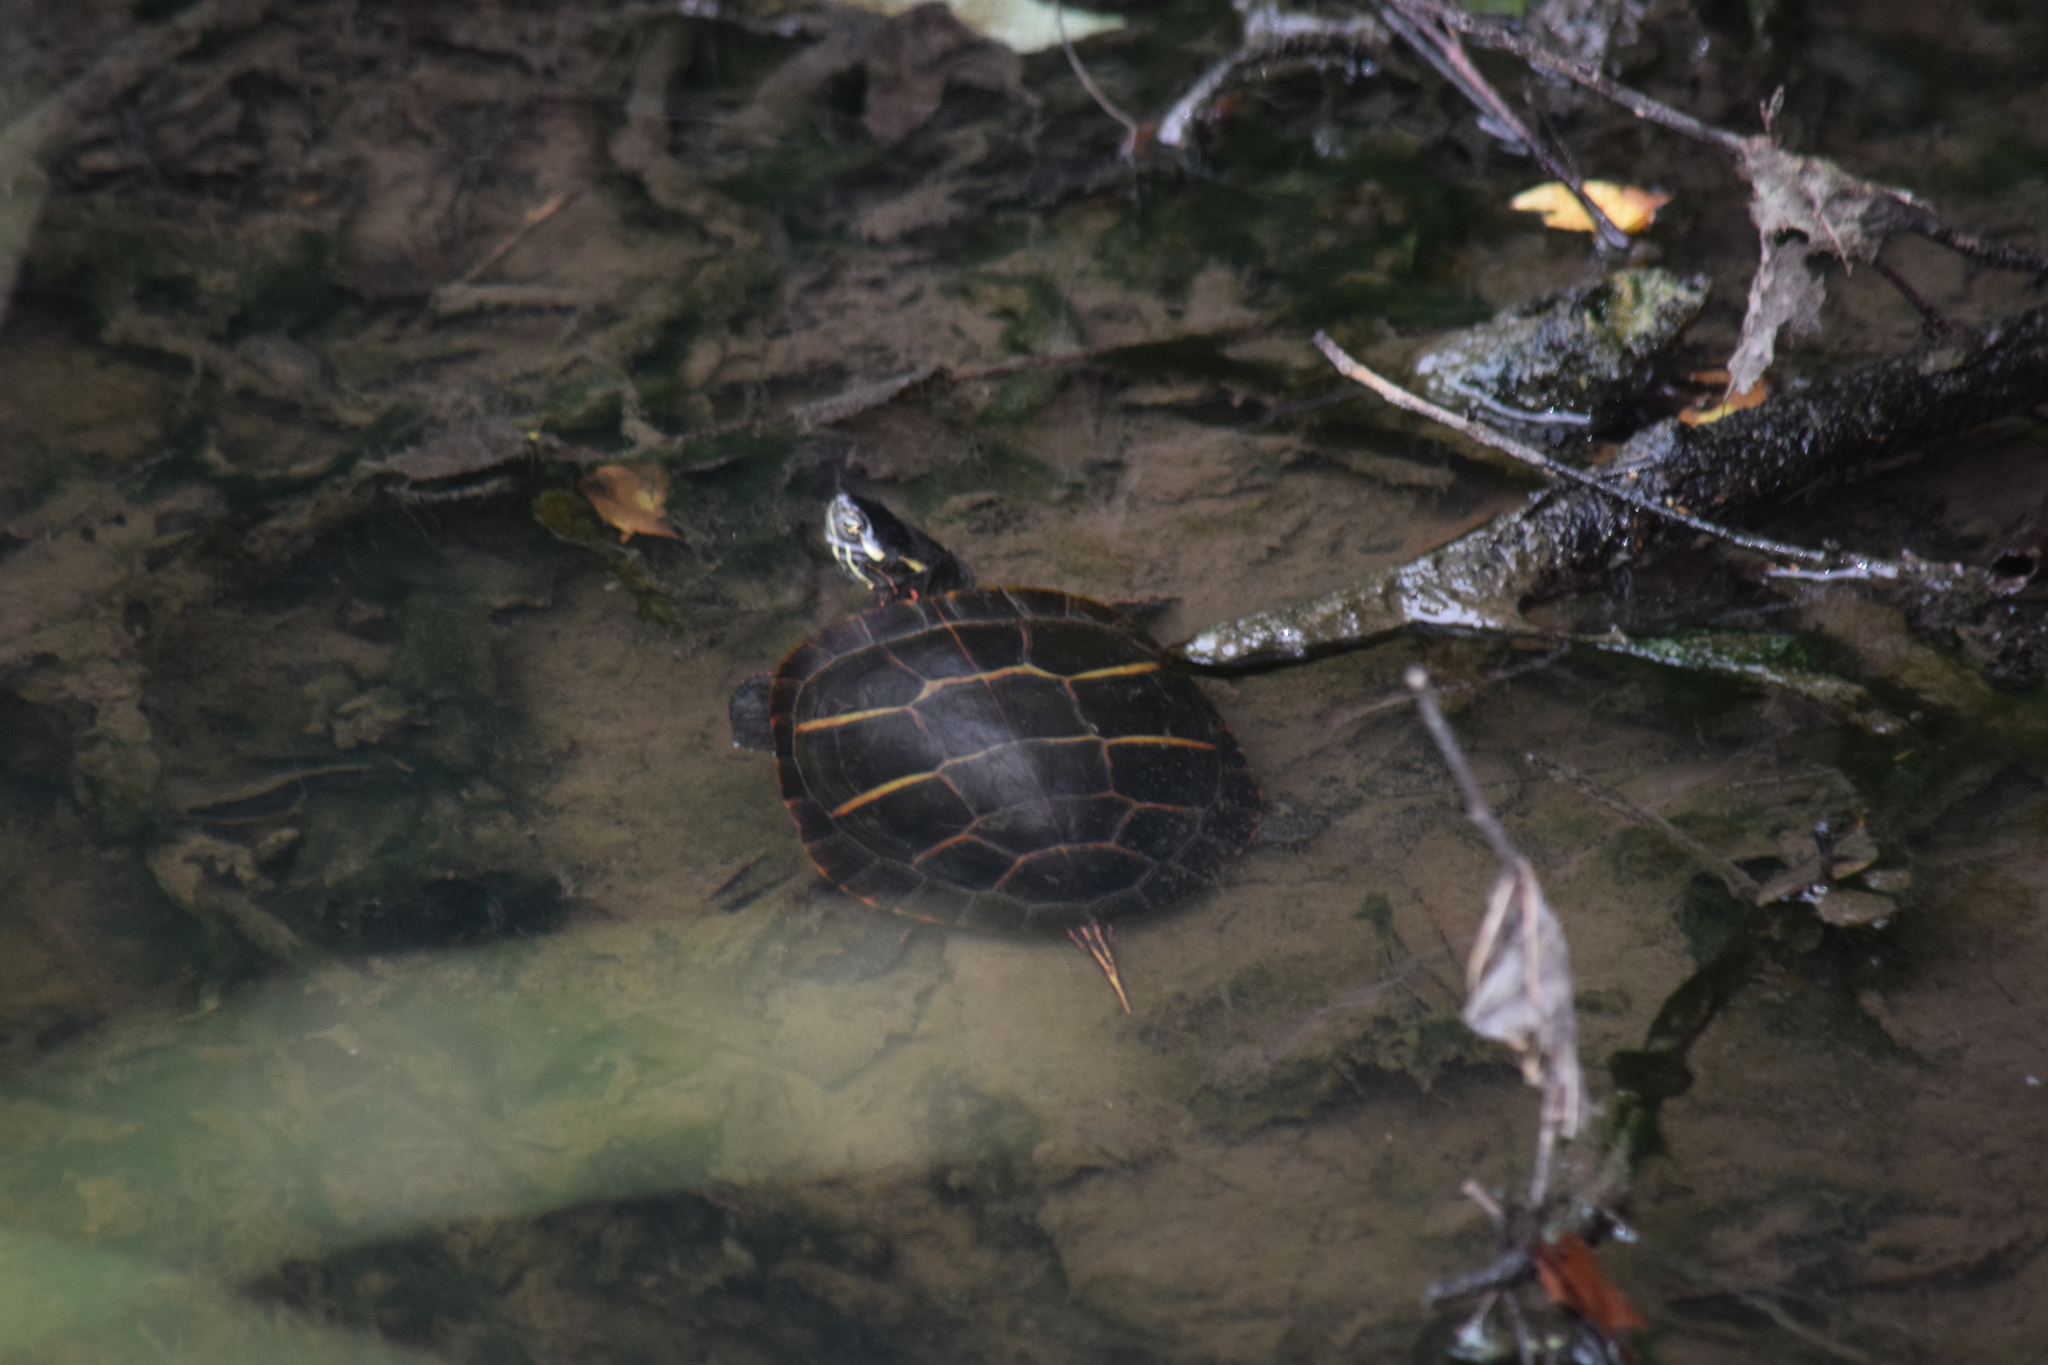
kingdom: Animalia
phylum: Chordata
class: Testudines
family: Emydidae
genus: Chrysemys
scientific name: Chrysemys picta
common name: Painted turtle
